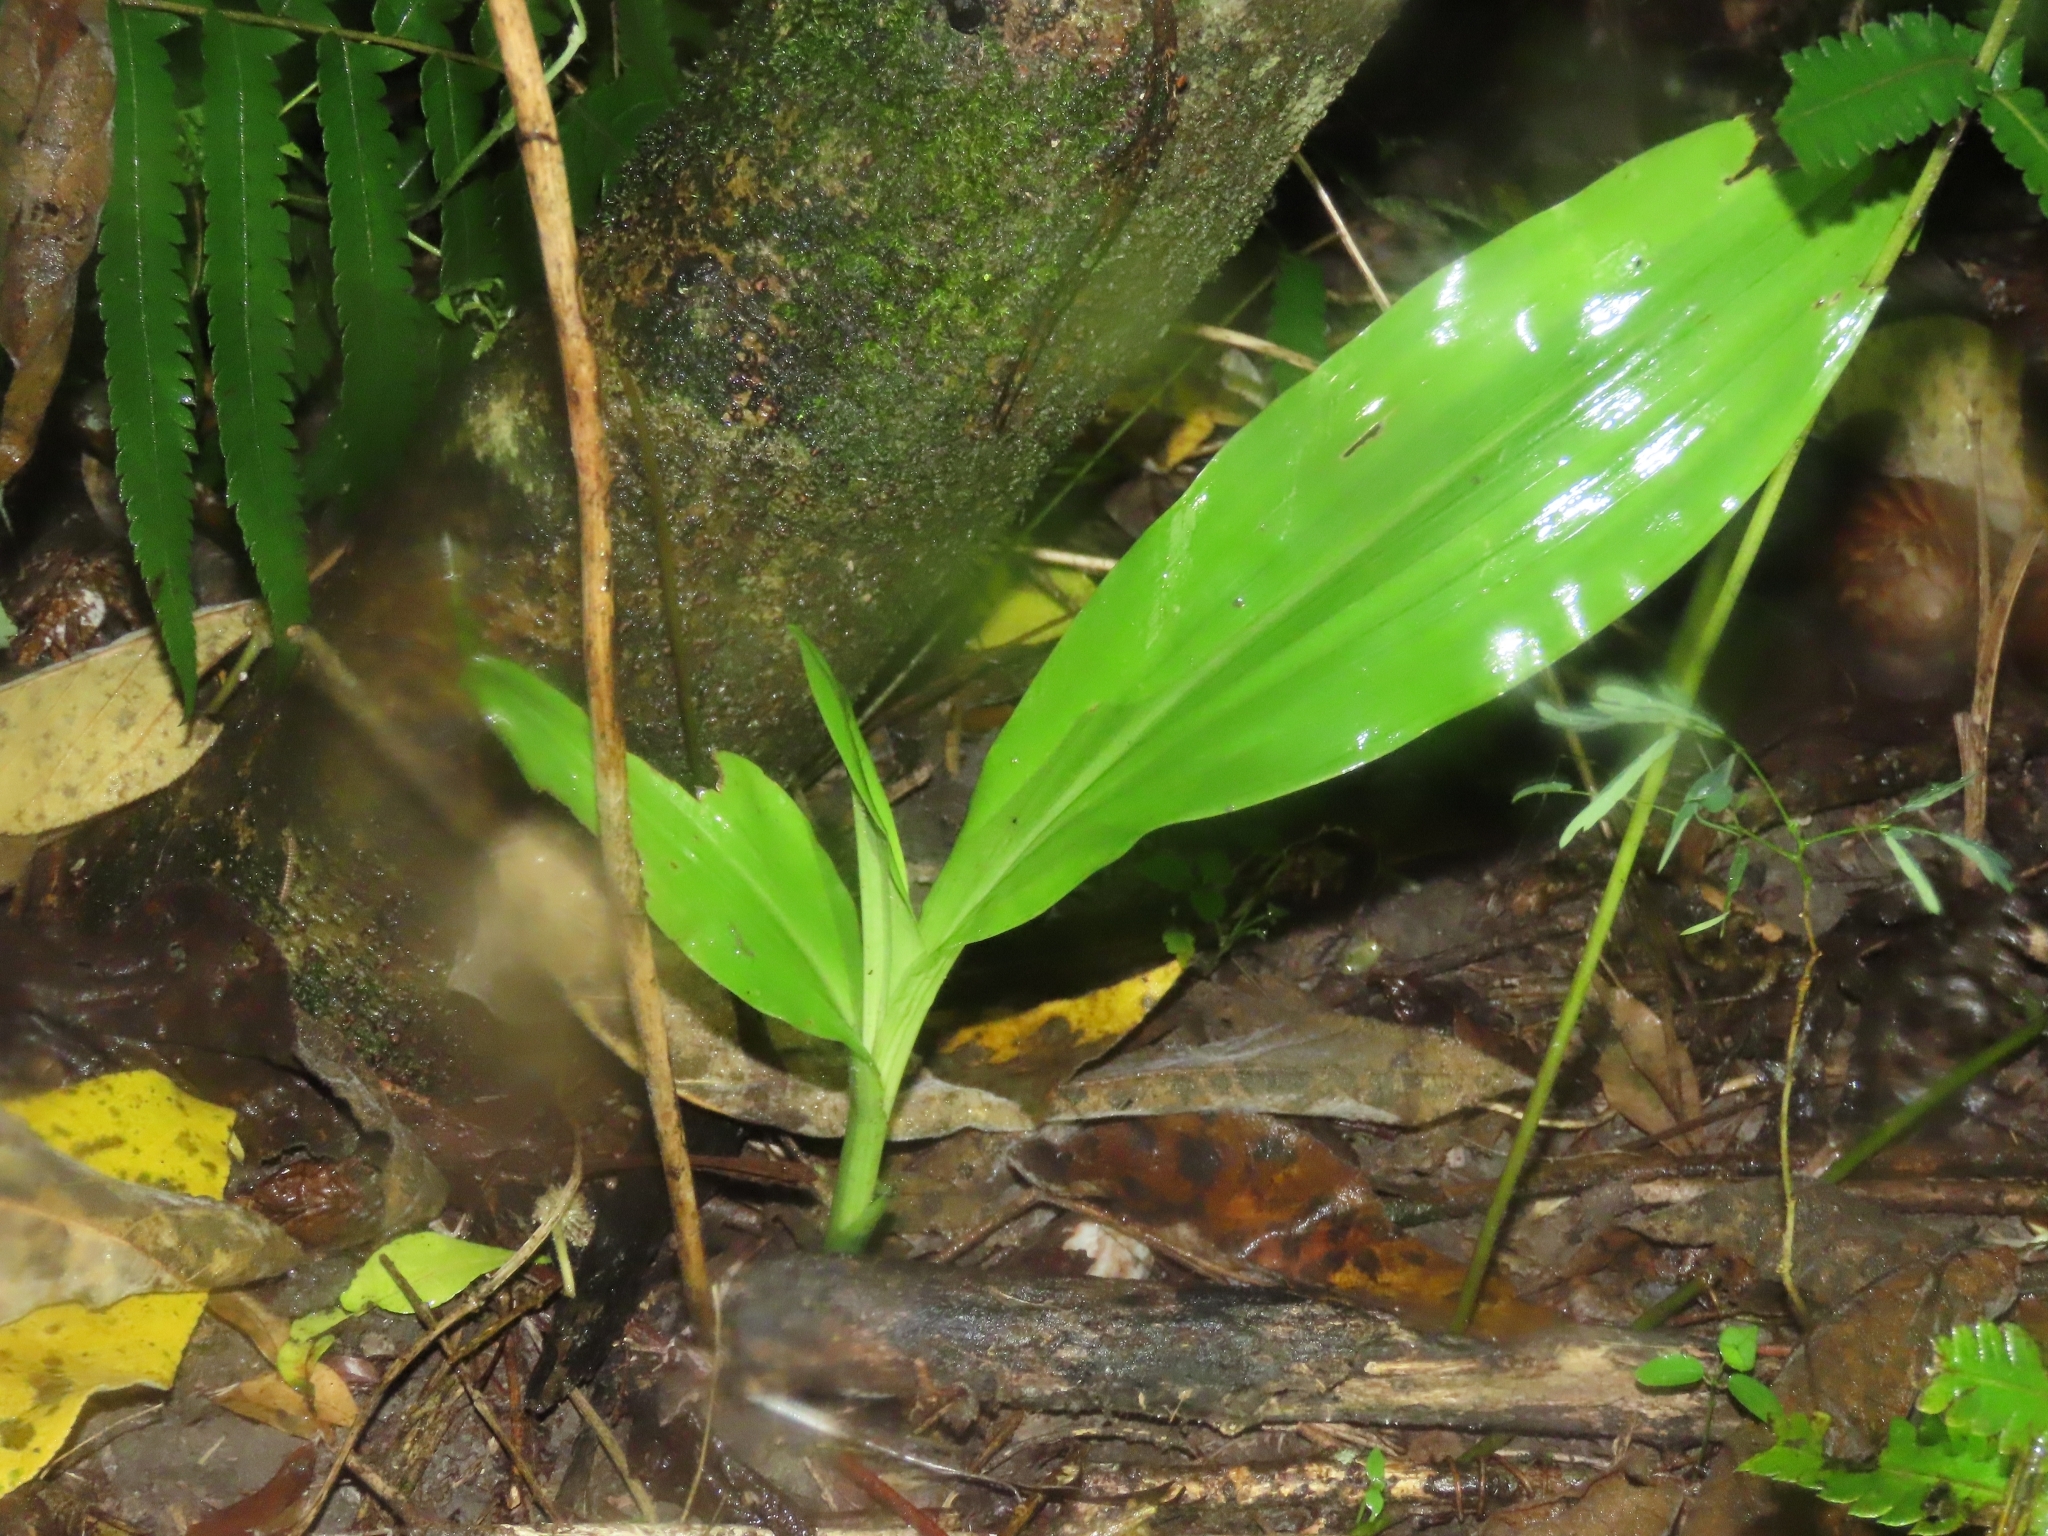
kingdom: Plantae
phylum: Tracheophyta
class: Liliopsida
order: Asparagales
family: Orchidaceae
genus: Eulophia
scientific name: Eulophia cernua
